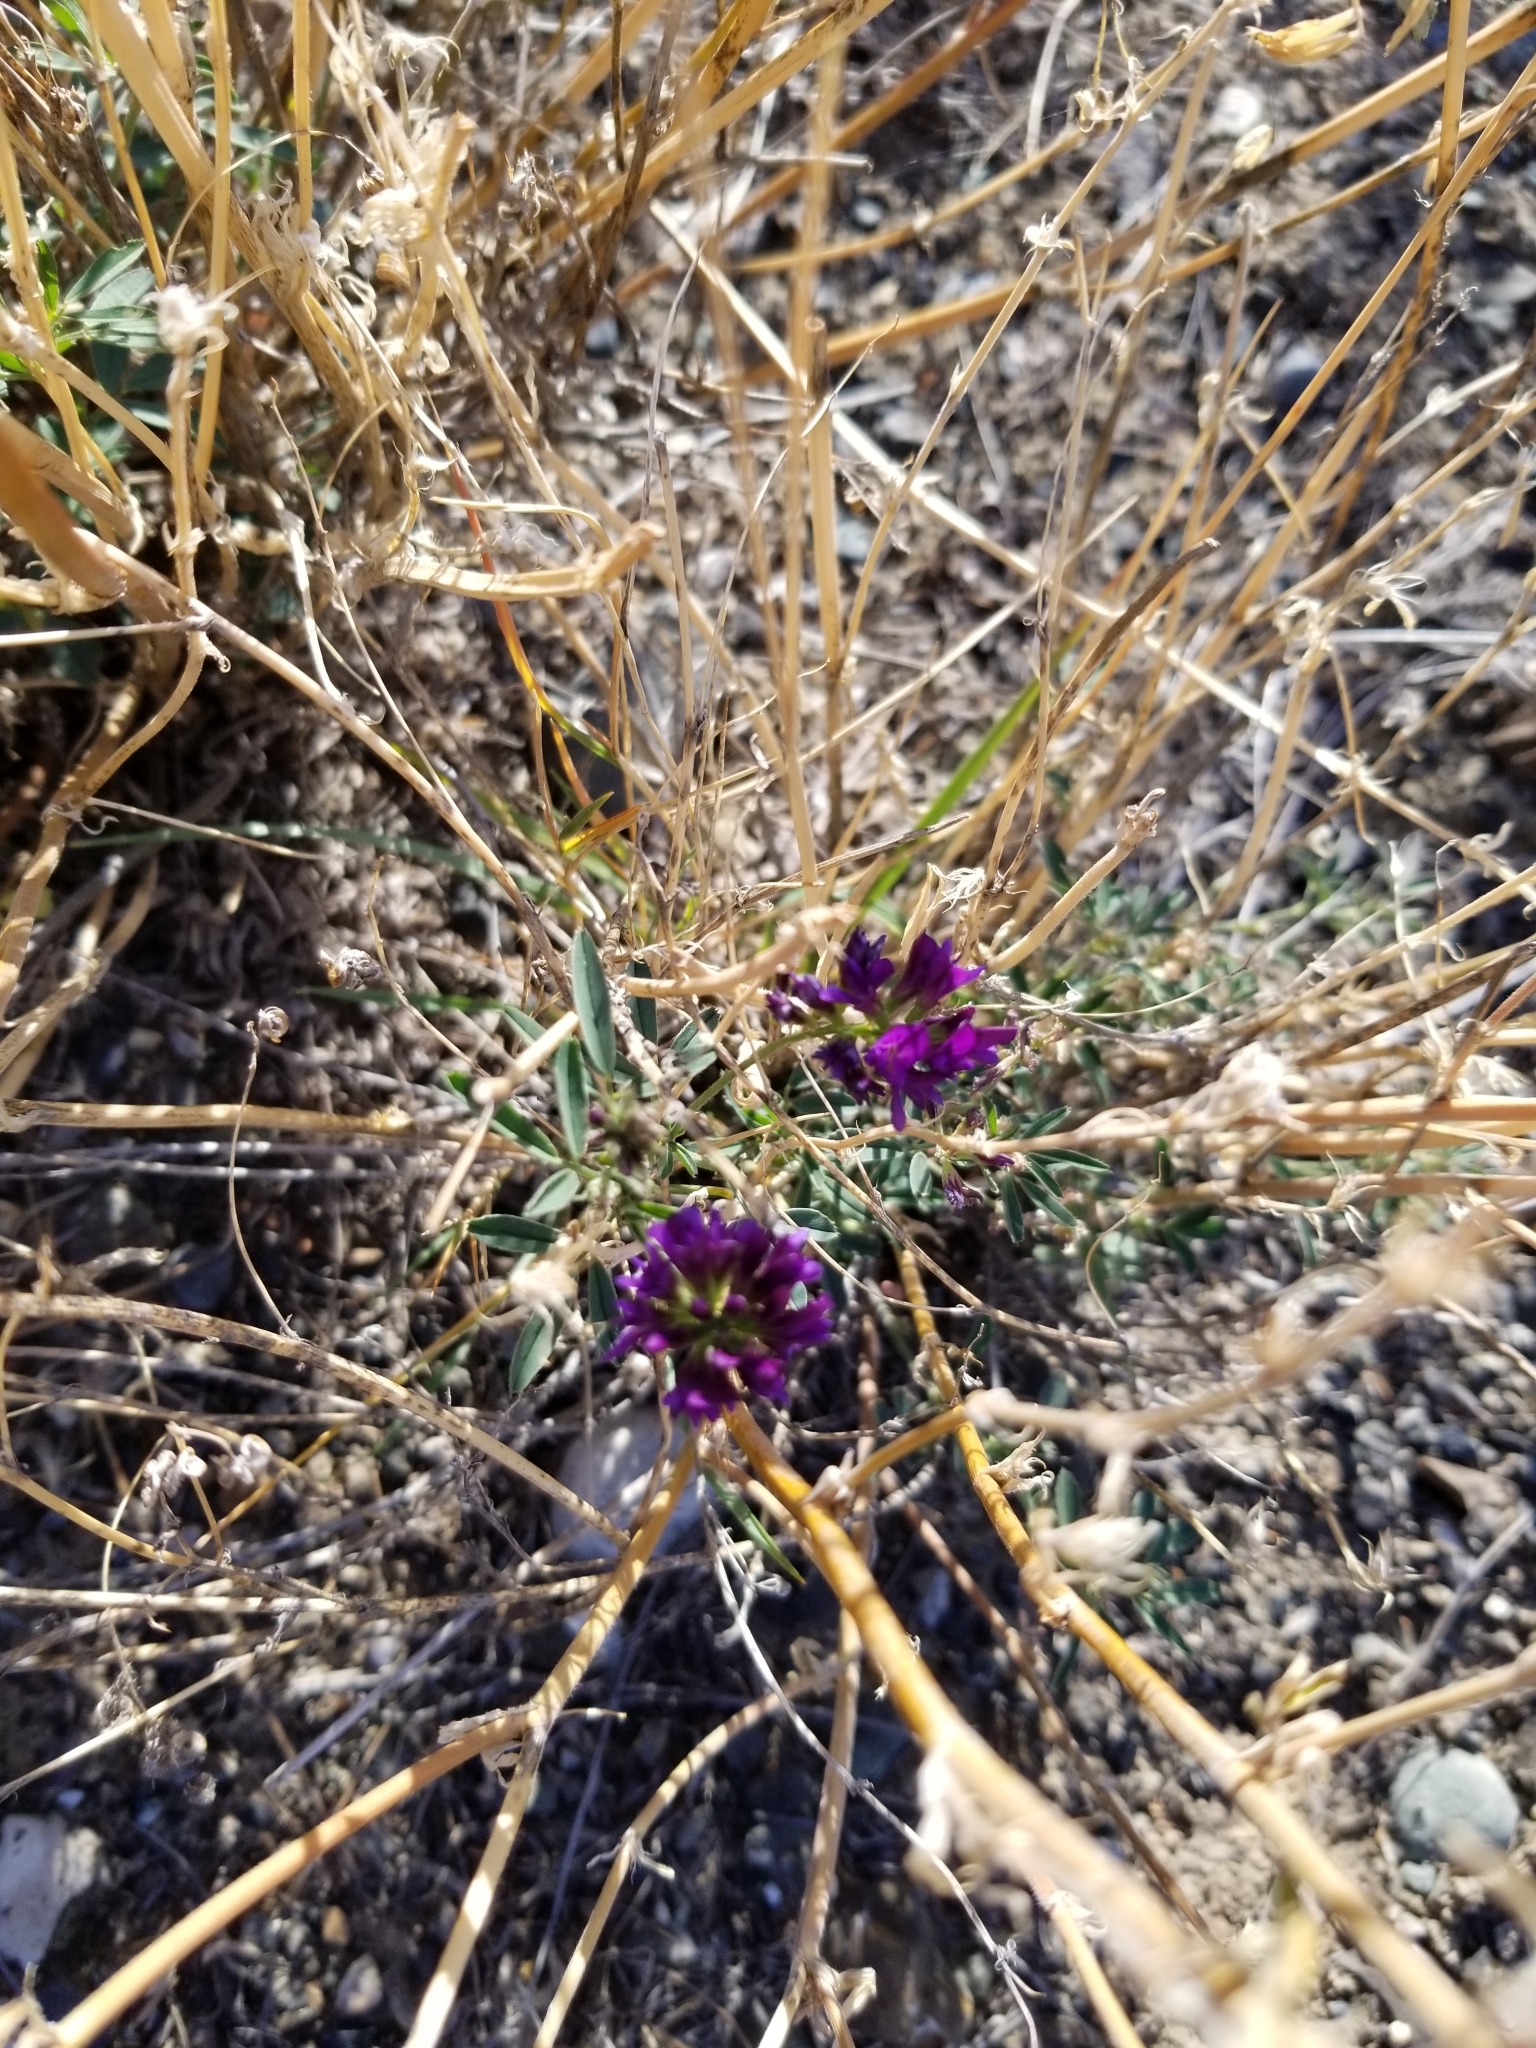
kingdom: Plantae
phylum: Tracheophyta
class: Magnoliopsida
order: Fabales
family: Fabaceae
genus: Medicago
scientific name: Medicago sativa
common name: Alfalfa
